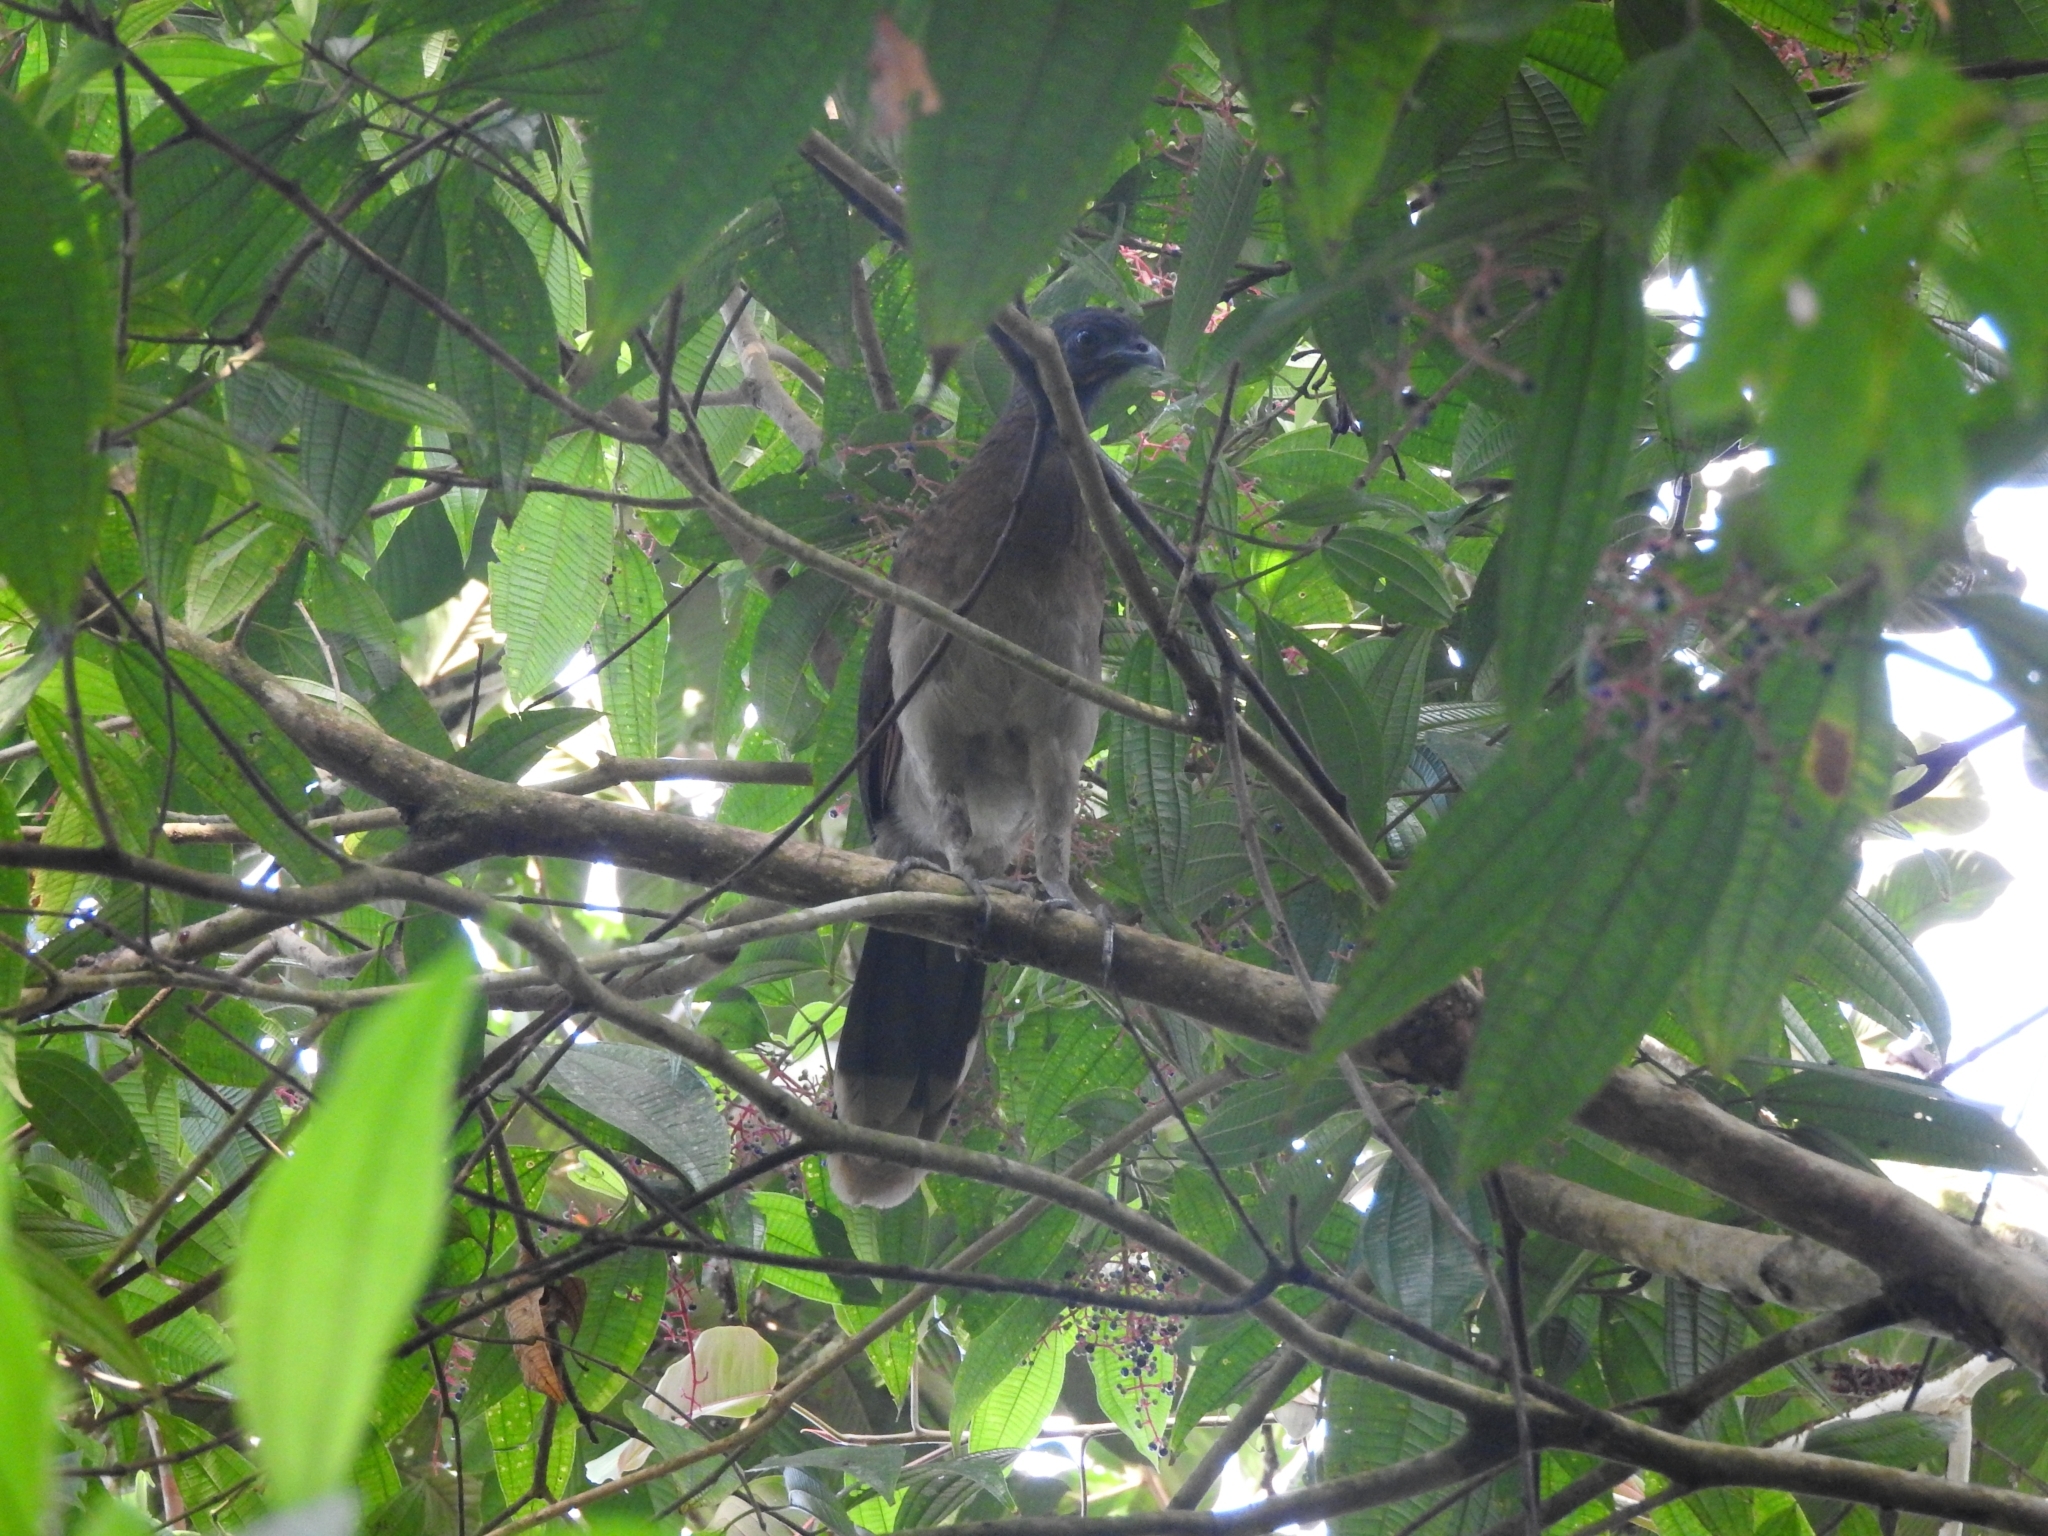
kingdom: Animalia
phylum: Chordata
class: Aves
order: Galliformes
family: Cracidae
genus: Ortalis
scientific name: Ortalis cinereiceps
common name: Grey-headed chachalaca
